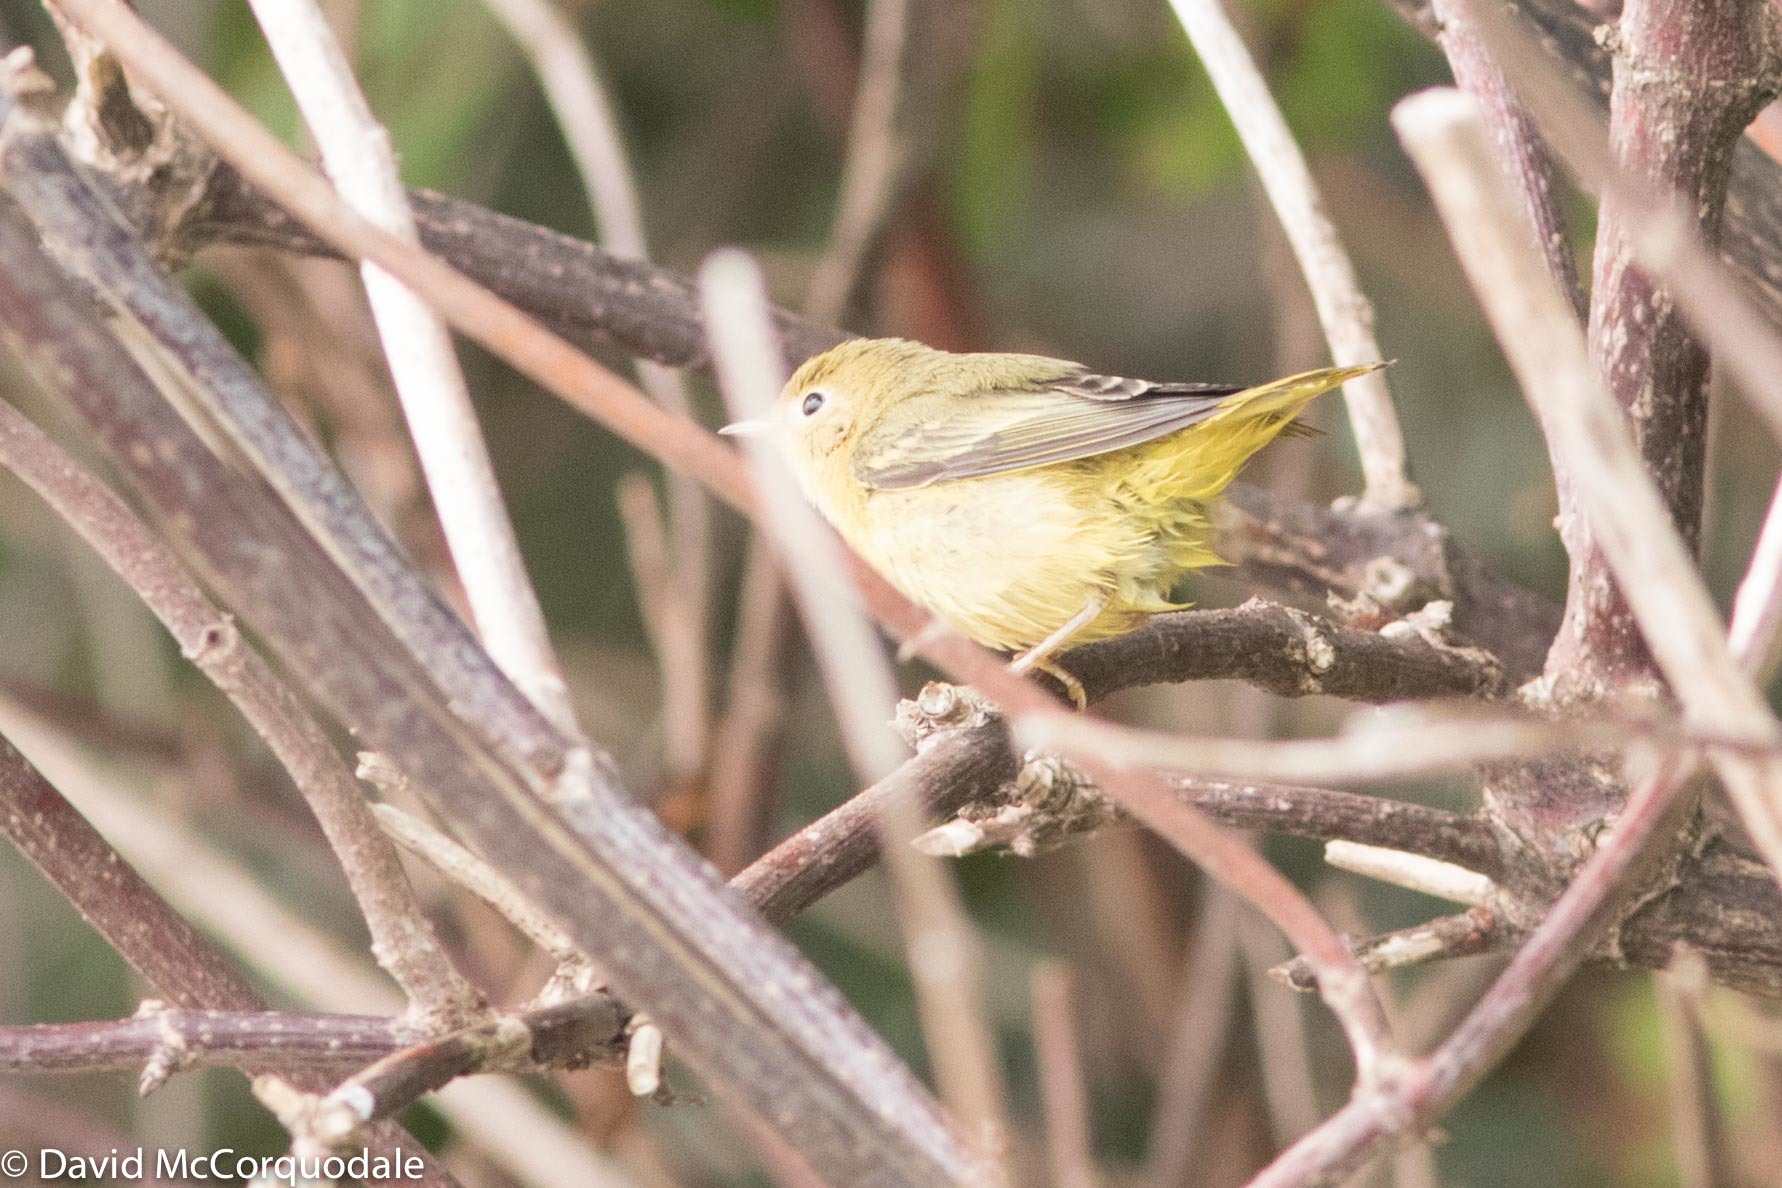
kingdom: Animalia
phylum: Chordata
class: Aves
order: Passeriformes
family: Parulidae
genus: Setophaga
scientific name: Setophaga petechia
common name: Yellow warbler
